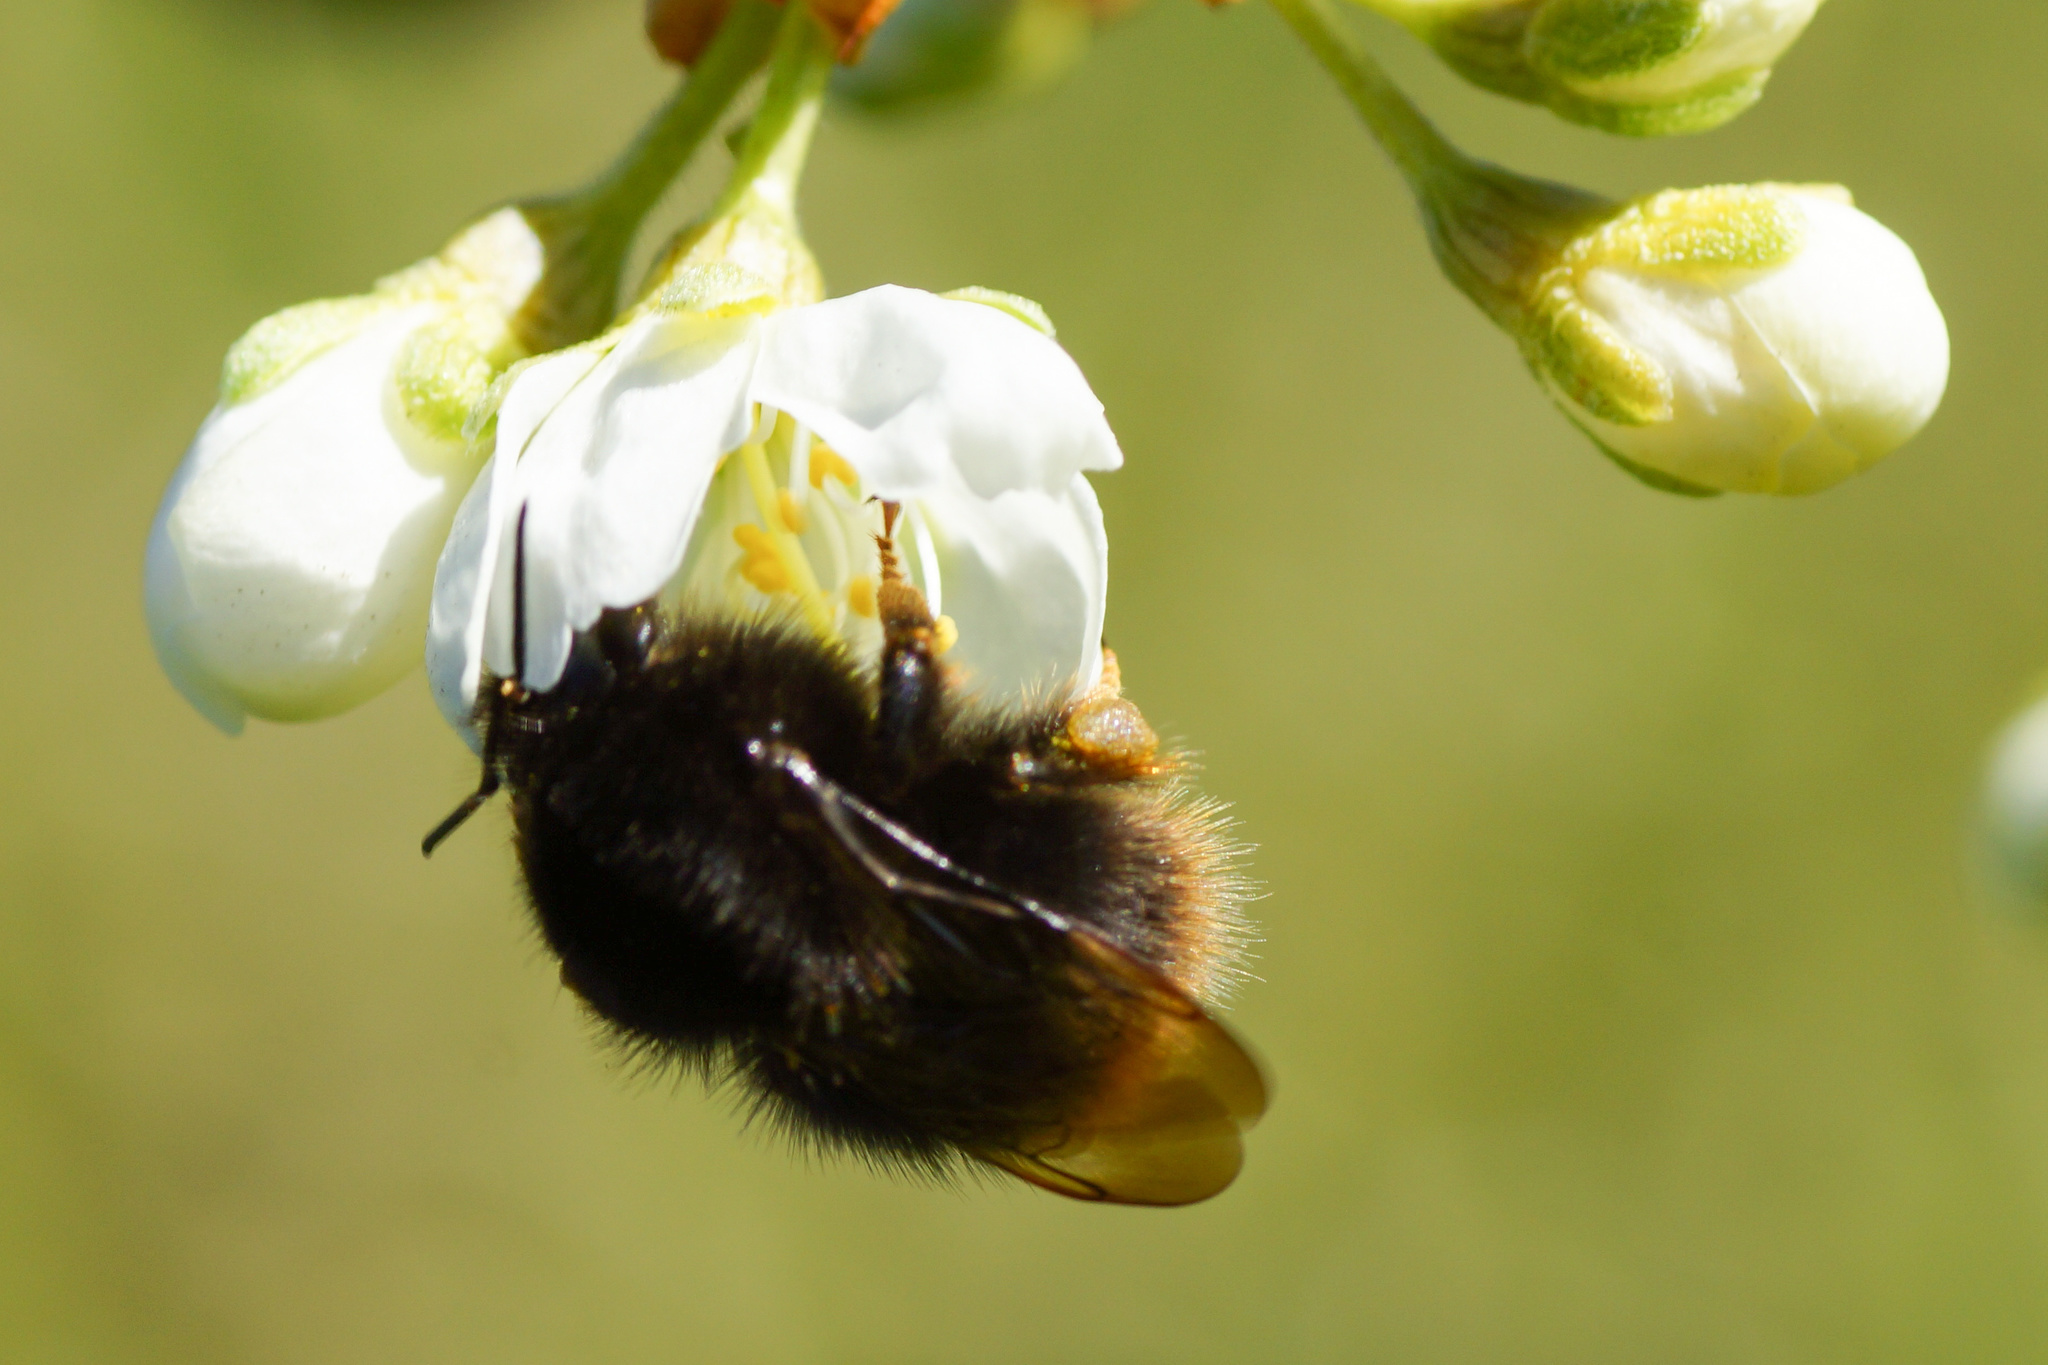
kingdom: Animalia
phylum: Arthropoda
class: Insecta
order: Hymenoptera
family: Apidae
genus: Bombus
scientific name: Bombus pratorum
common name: Early humble-bee
